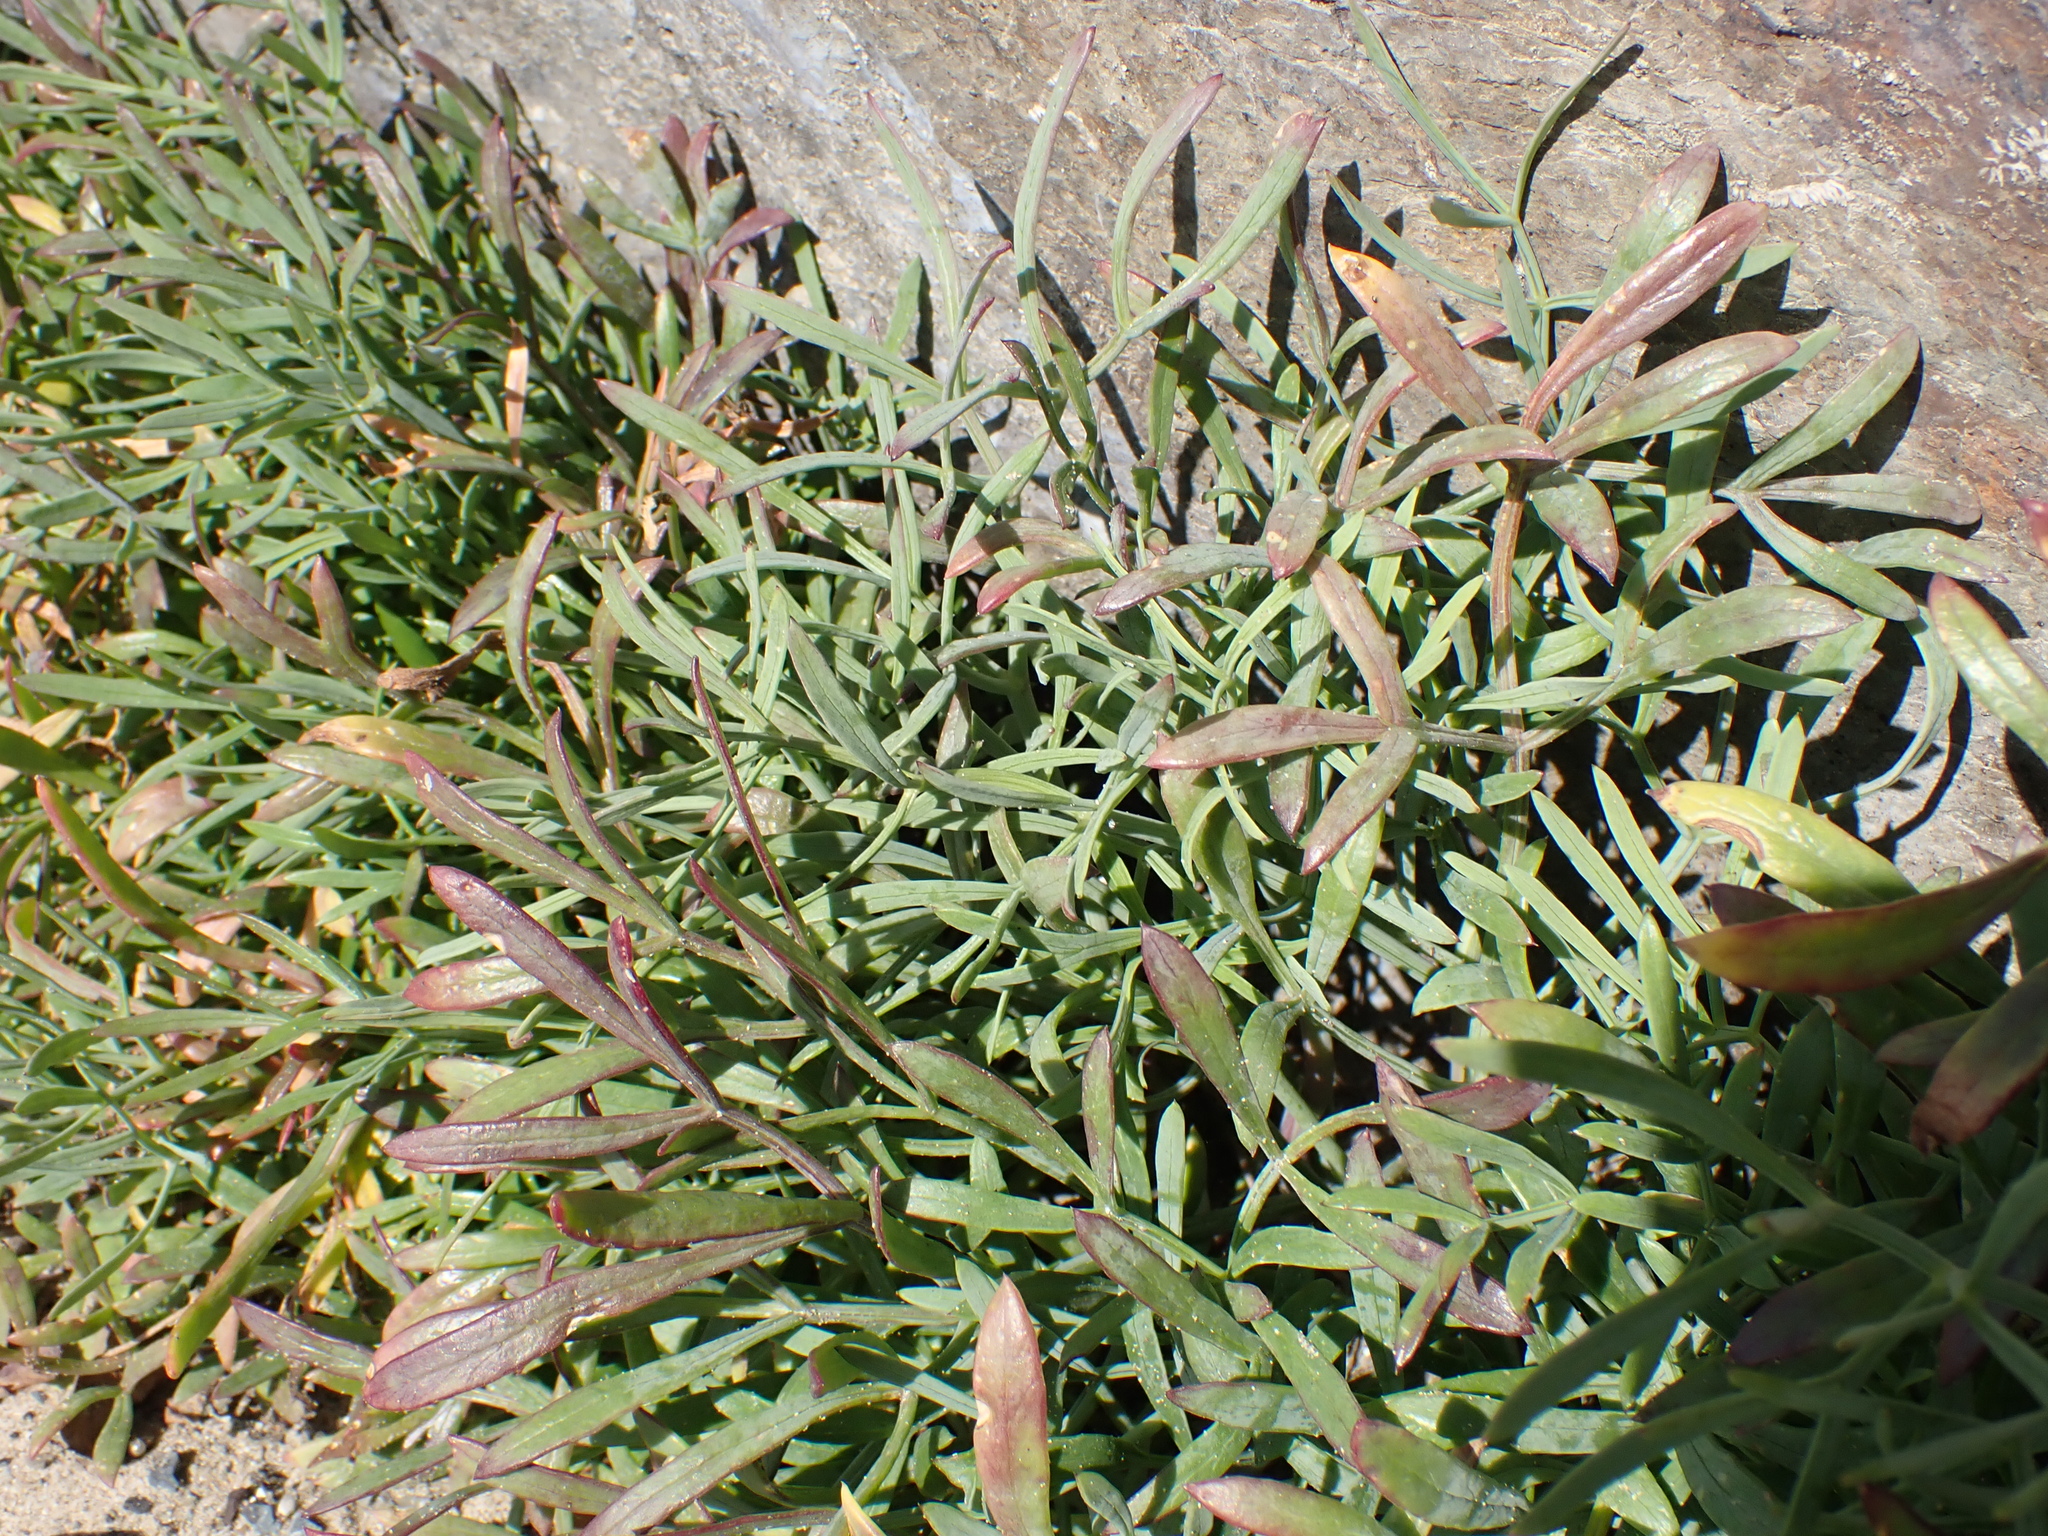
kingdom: Plantae
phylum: Tracheophyta
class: Magnoliopsida
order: Apiales
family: Apiaceae
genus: Crithmum
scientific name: Crithmum maritimum
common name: Rock samphire
